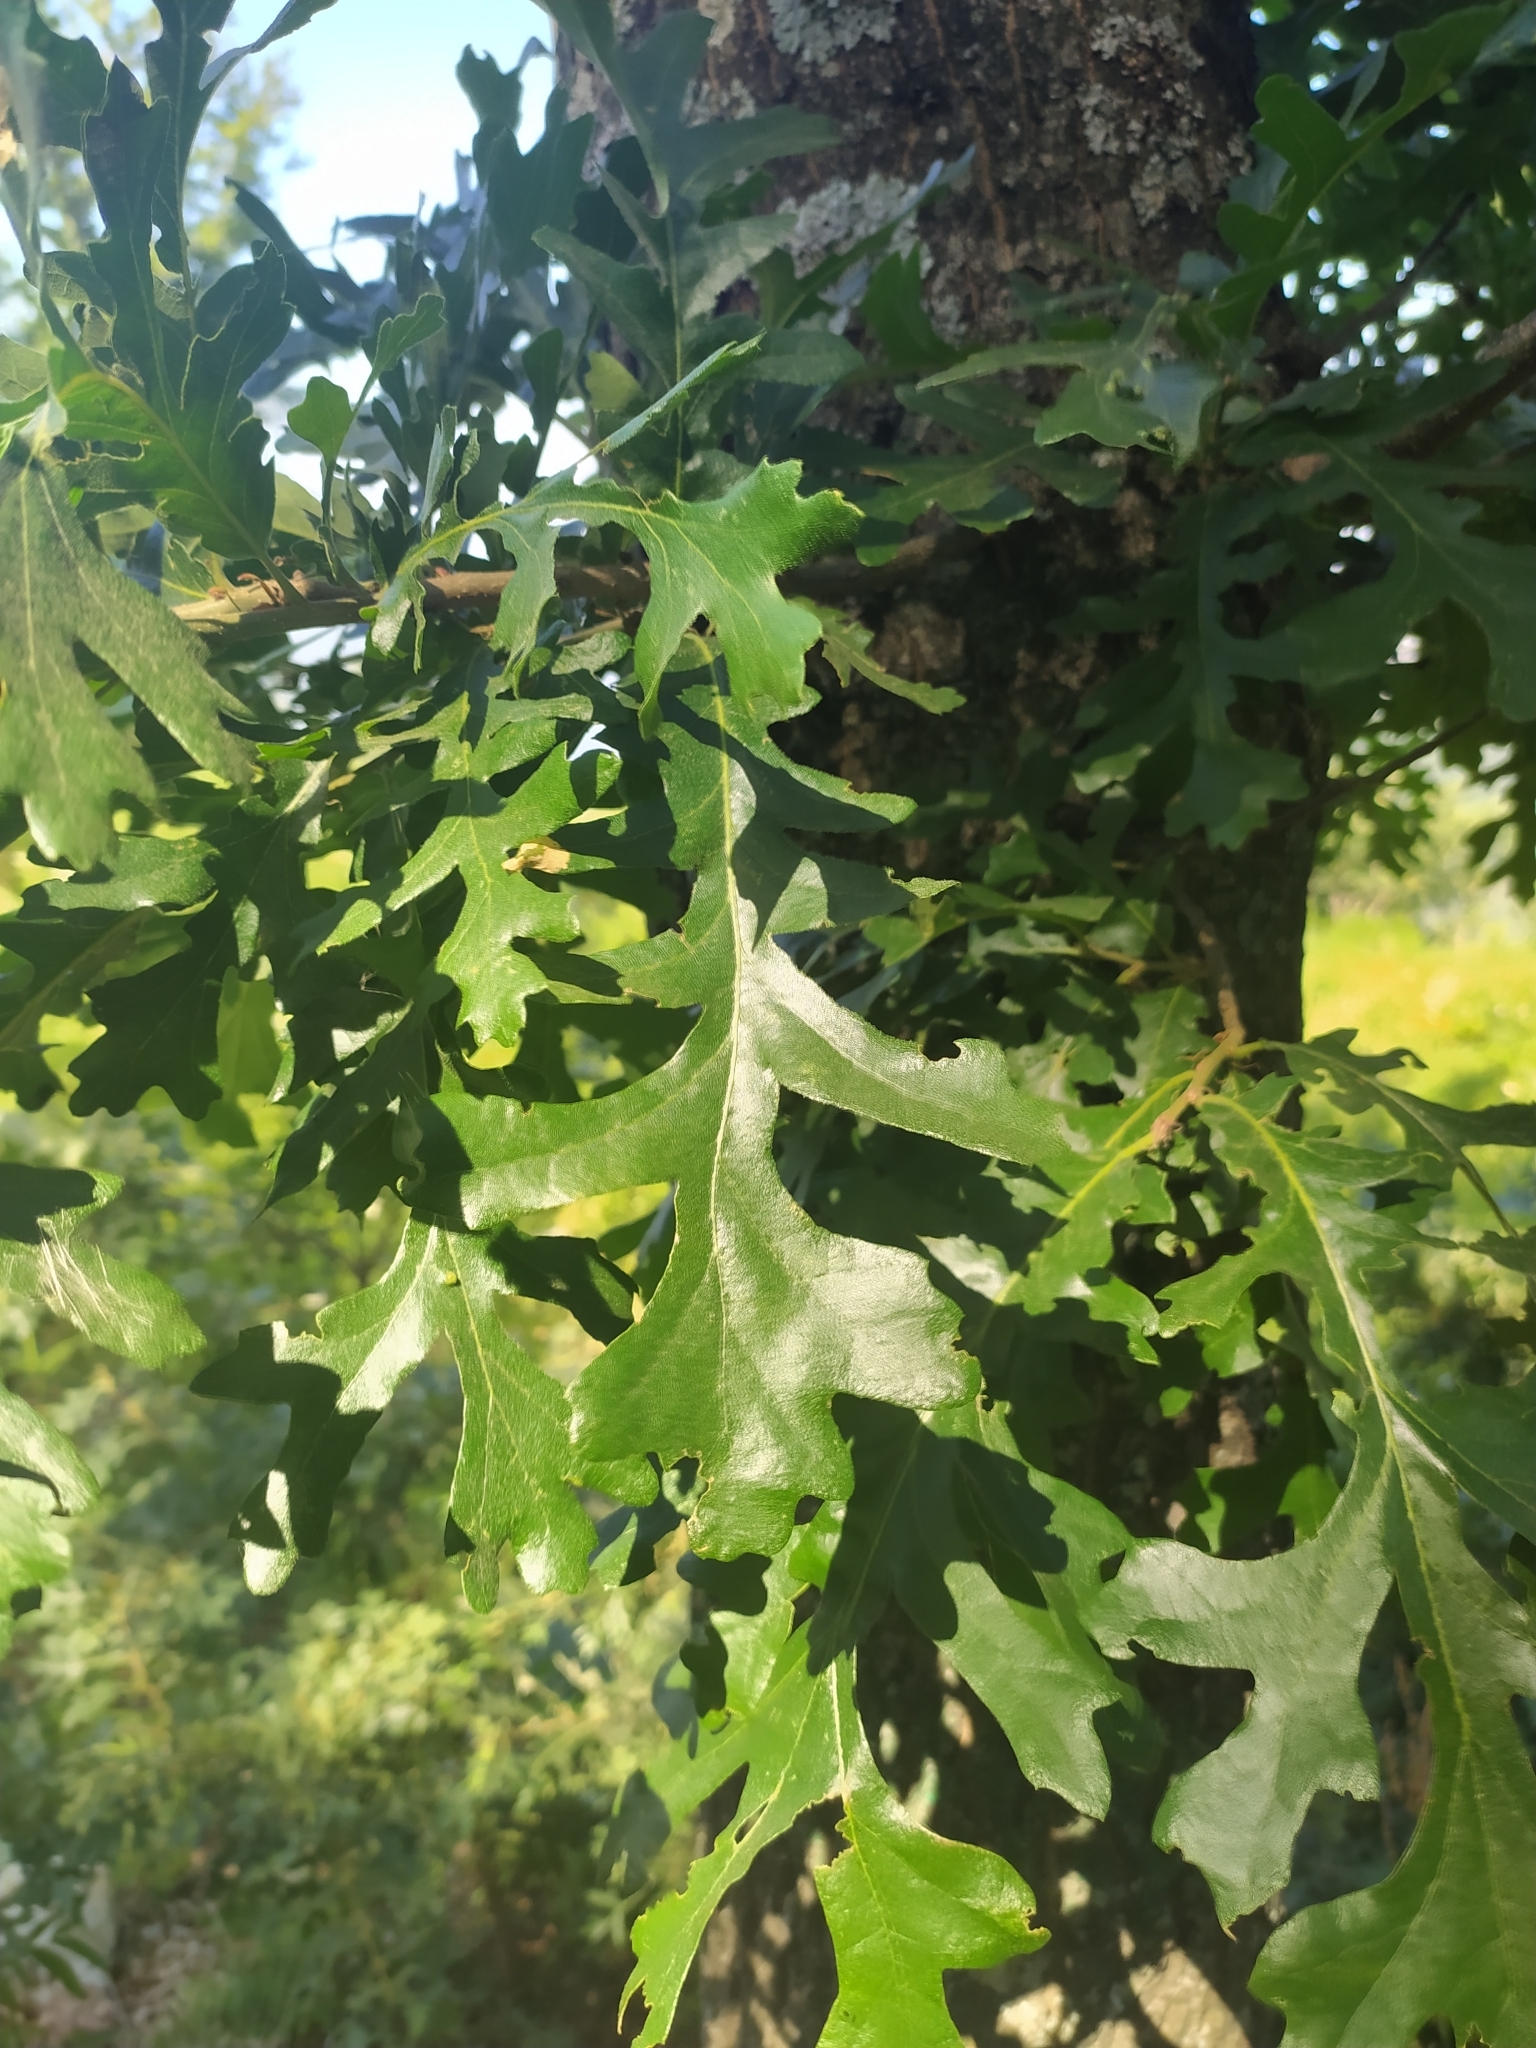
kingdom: Plantae
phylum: Tracheophyta
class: Magnoliopsida
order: Fagales
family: Fagaceae
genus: Quercus
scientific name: Quercus cerris
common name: Turkey oak
